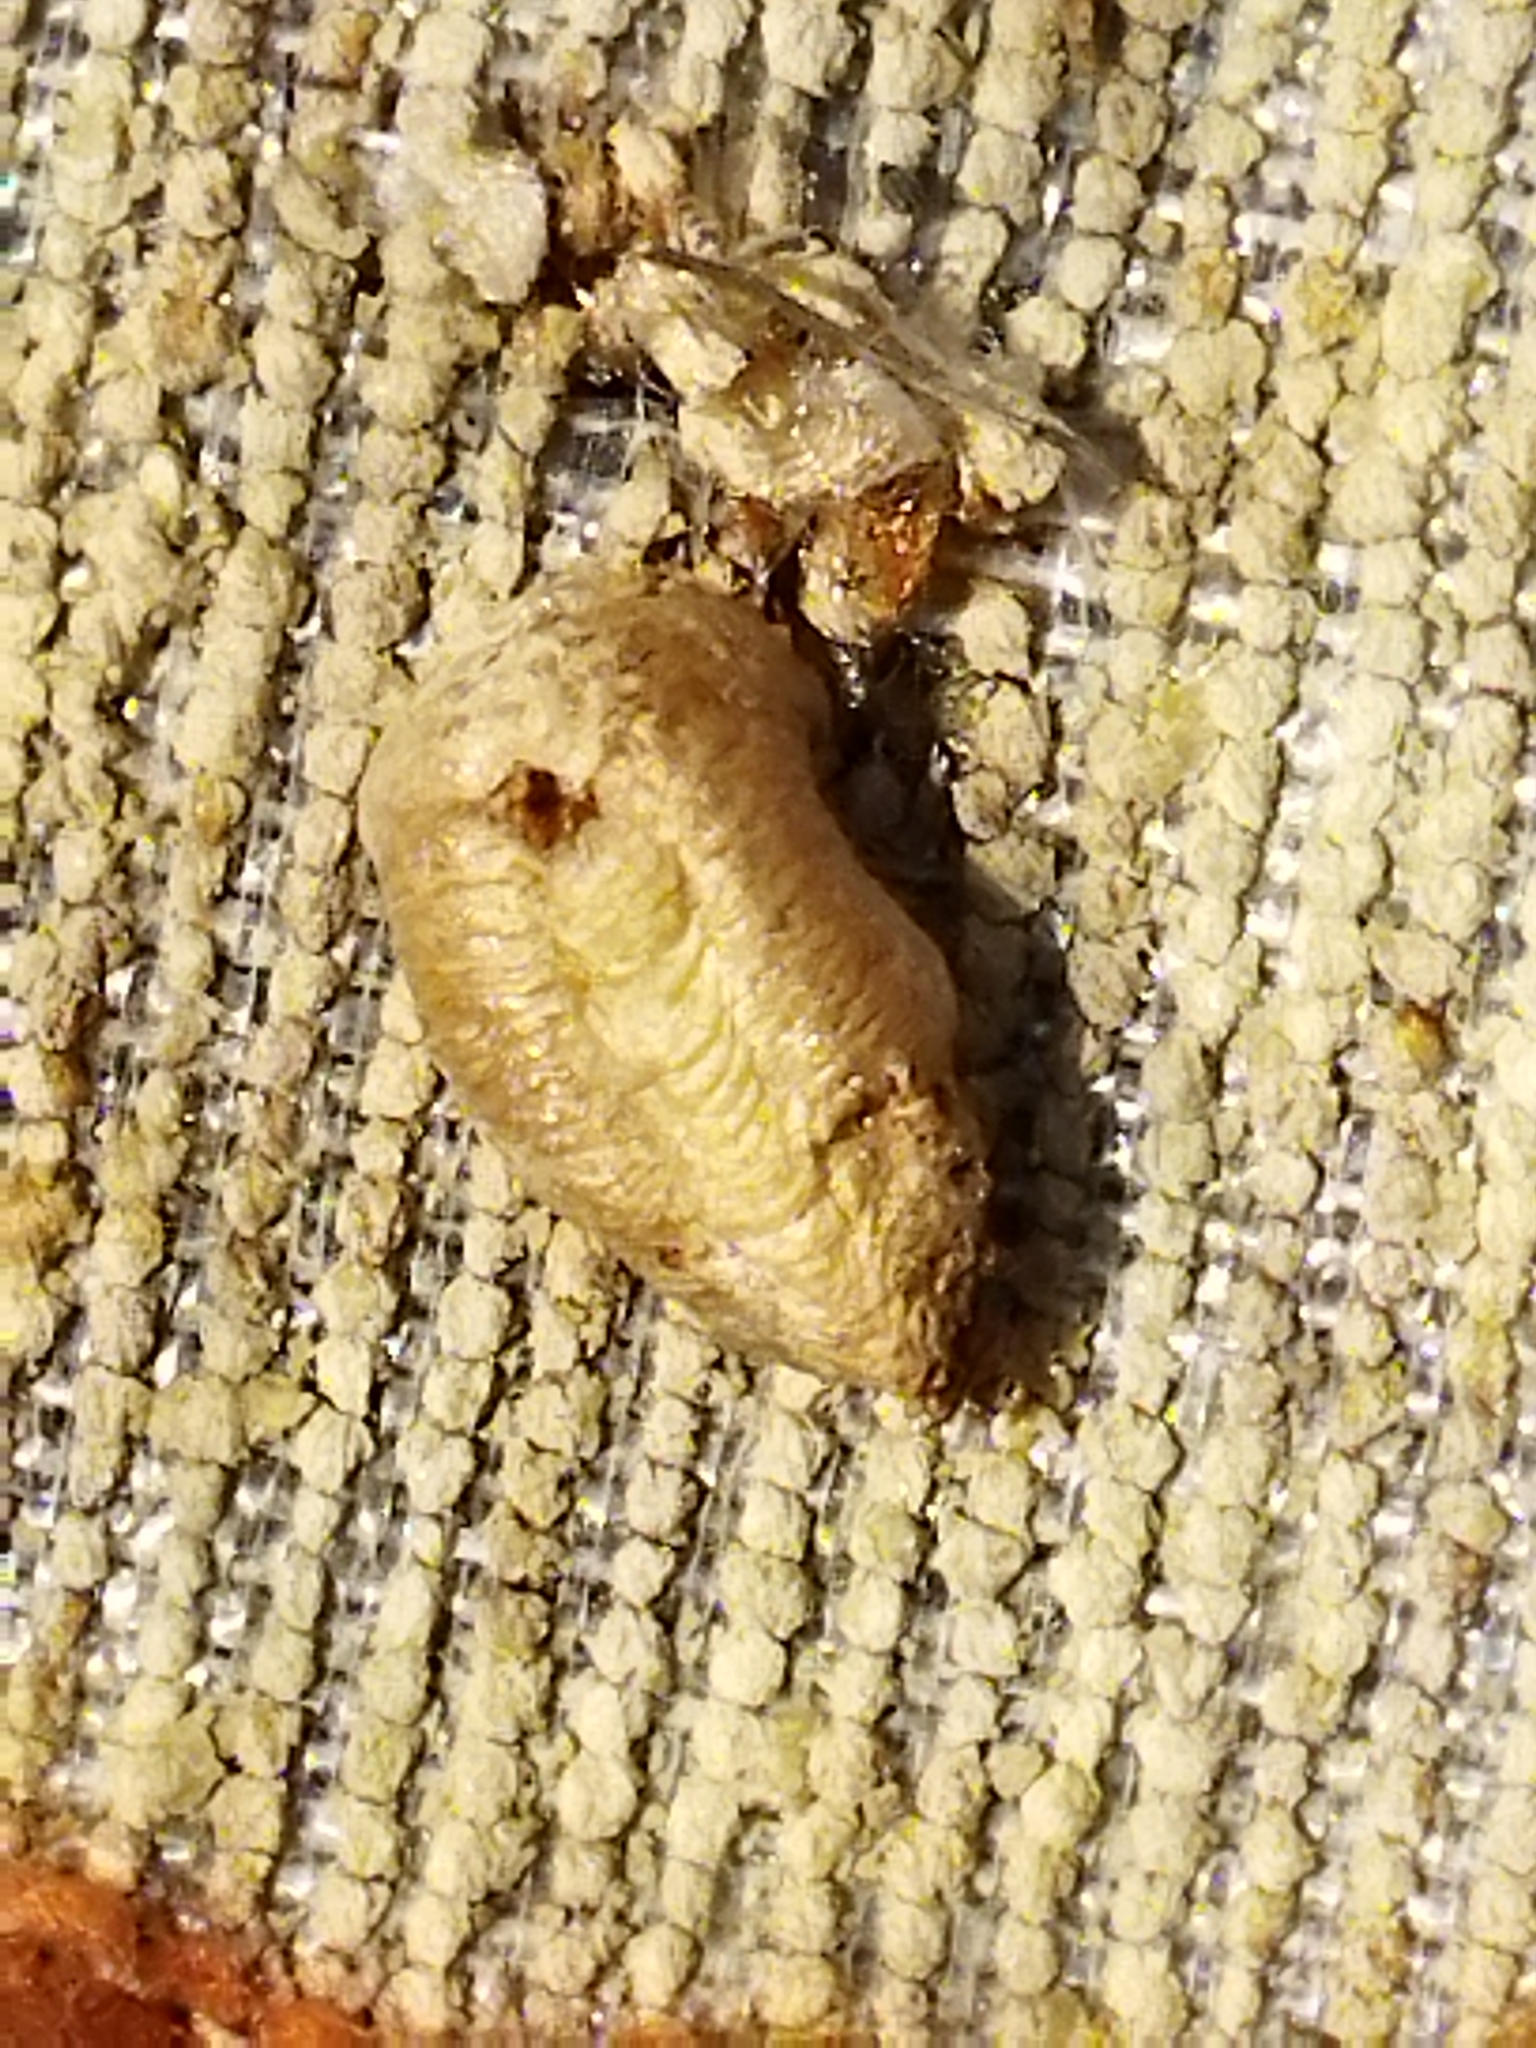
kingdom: Animalia
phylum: Arthropoda
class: Insecta
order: Mantodea
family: Mantidae
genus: Mantis
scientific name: Mantis religiosa
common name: Praying mantis
